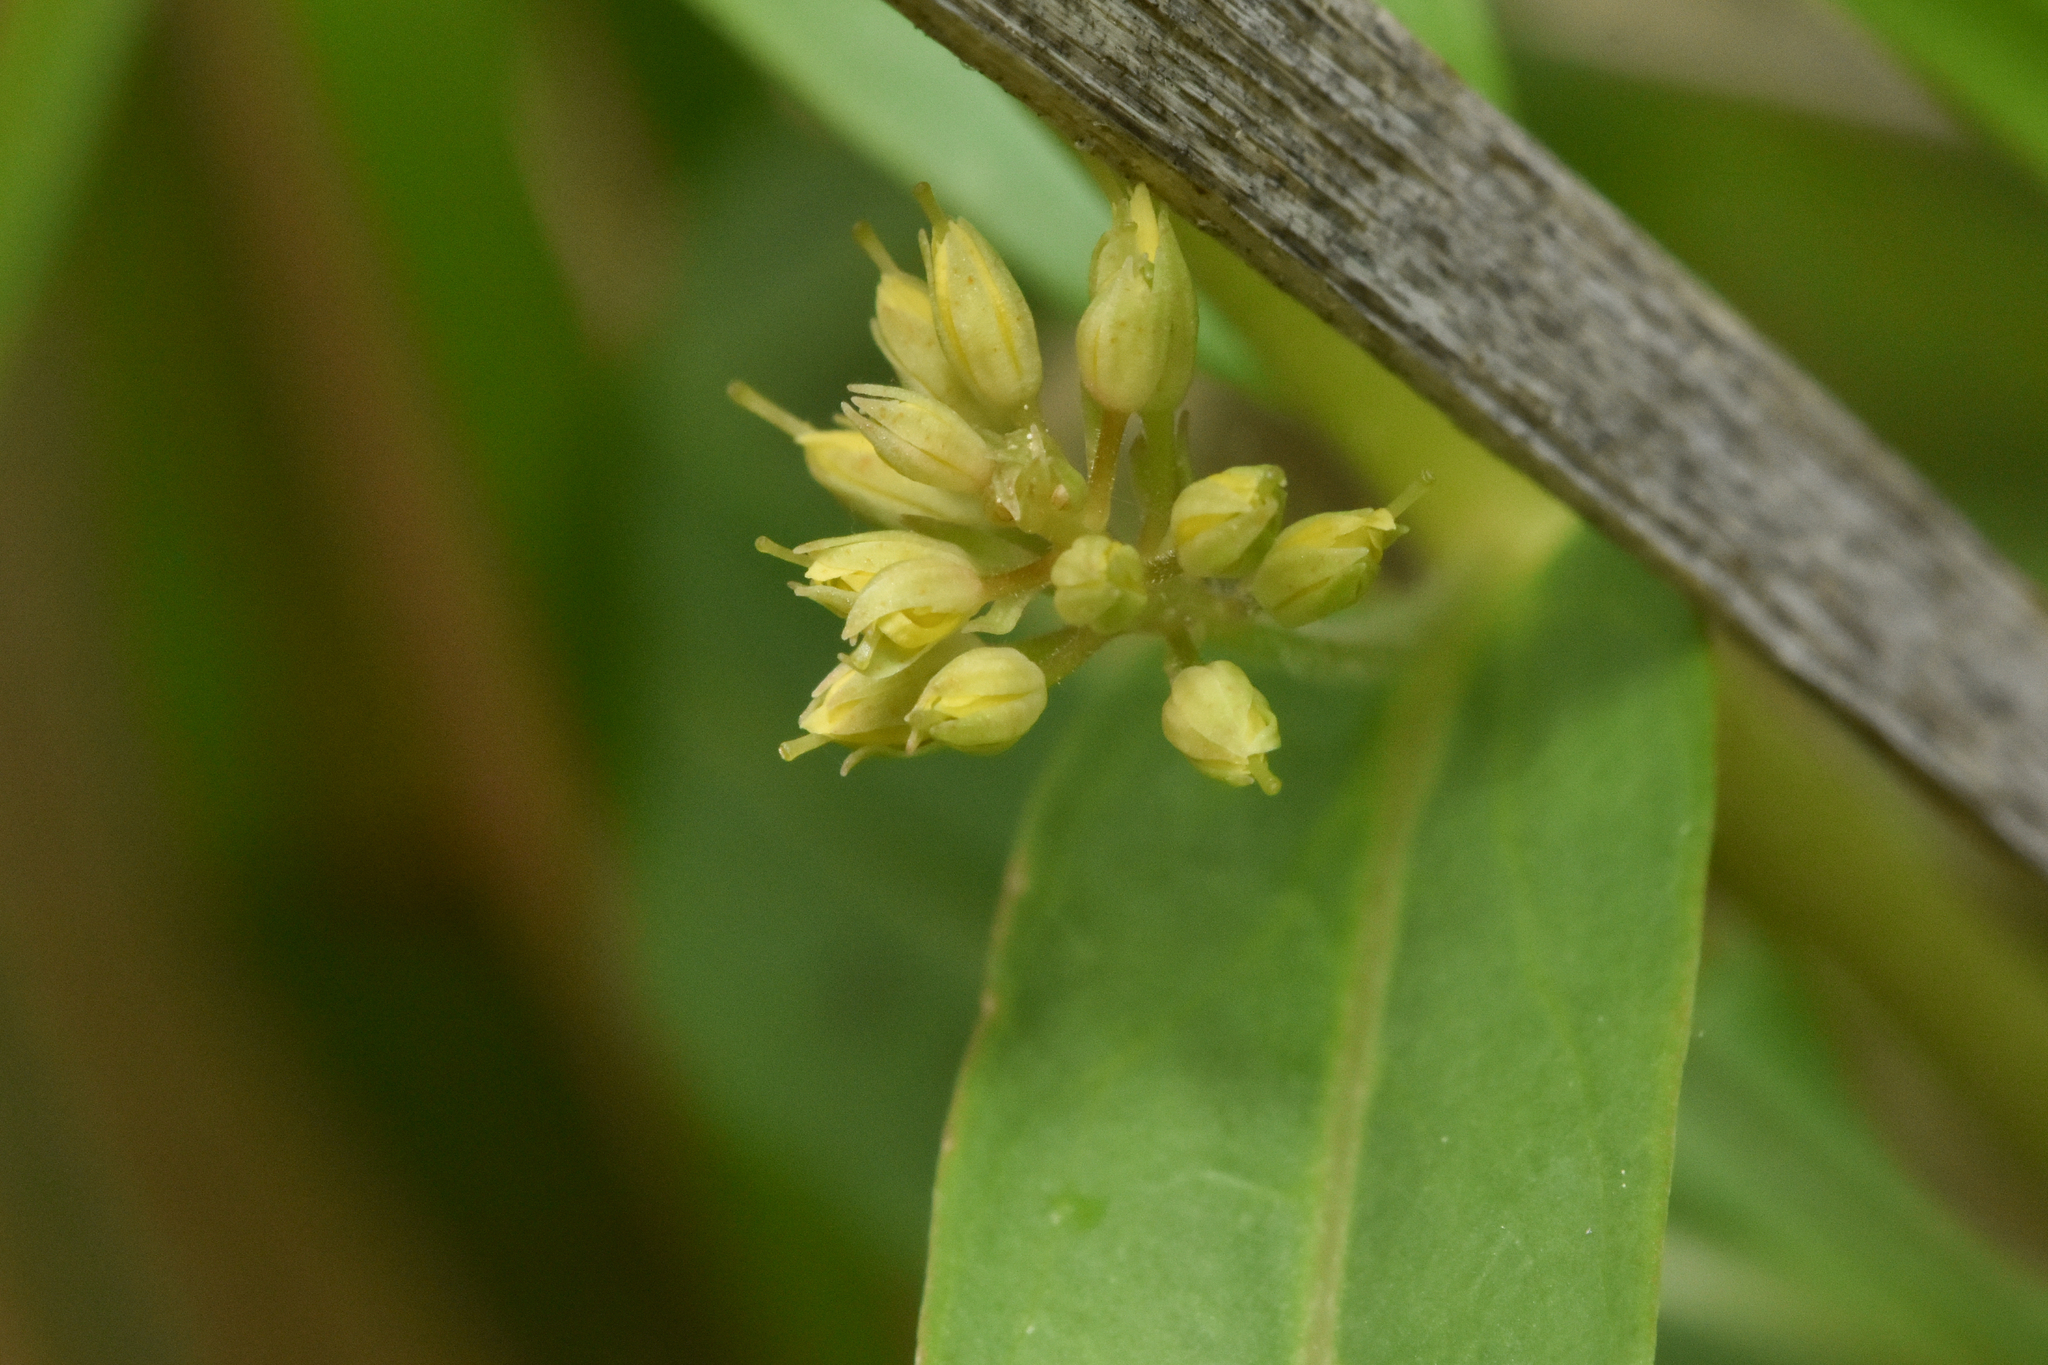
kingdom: Plantae
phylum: Tracheophyta
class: Magnoliopsida
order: Ericales
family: Primulaceae
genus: Lysimachia
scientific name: Lysimachia thyrsiflora
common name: Tufted loosestrife
